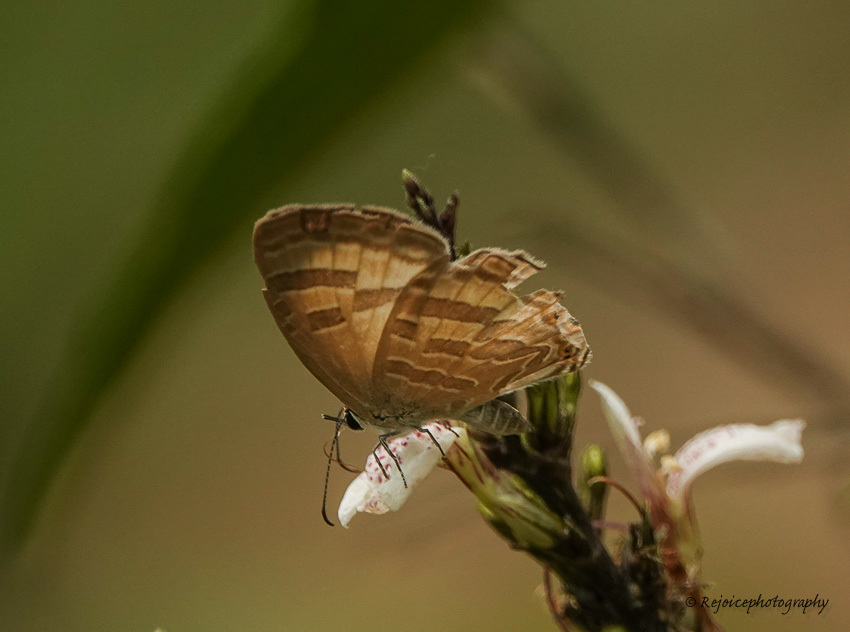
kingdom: Animalia
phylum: Arthropoda
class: Insecta
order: Lepidoptera
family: Lycaenidae
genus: Jamides
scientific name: Jamides celeno
